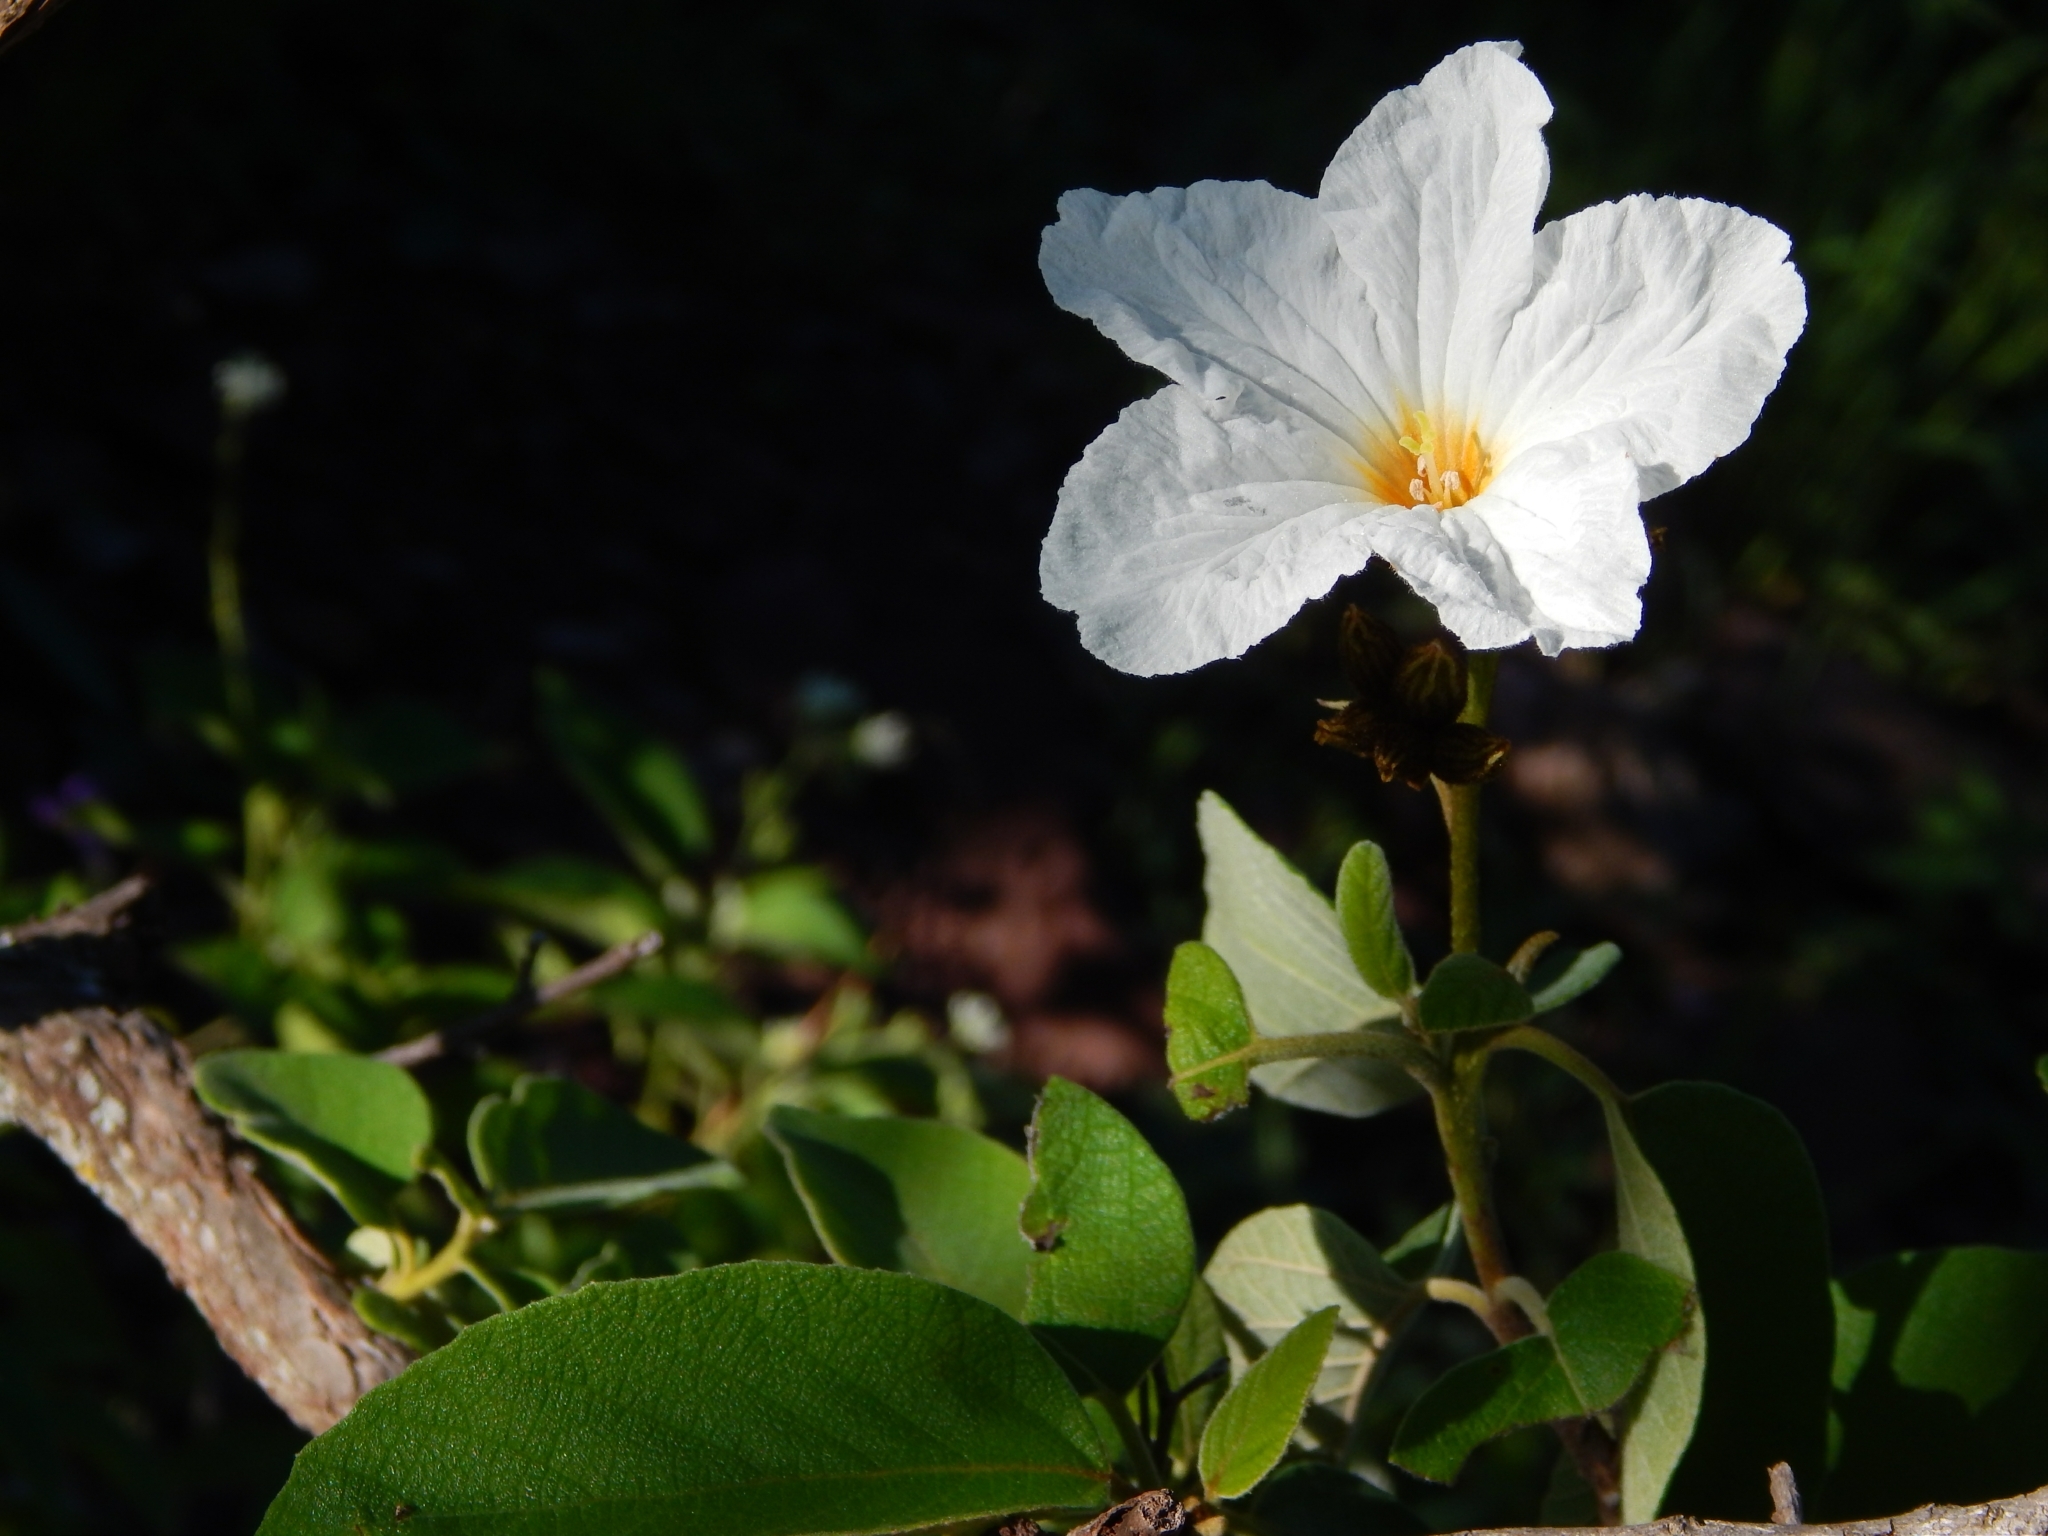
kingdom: Plantae
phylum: Tracheophyta
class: Magnoliopsida
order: Boraginales
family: Cordiaceae
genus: Cordia
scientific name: Cordia boissieri
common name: Mexican-olive
